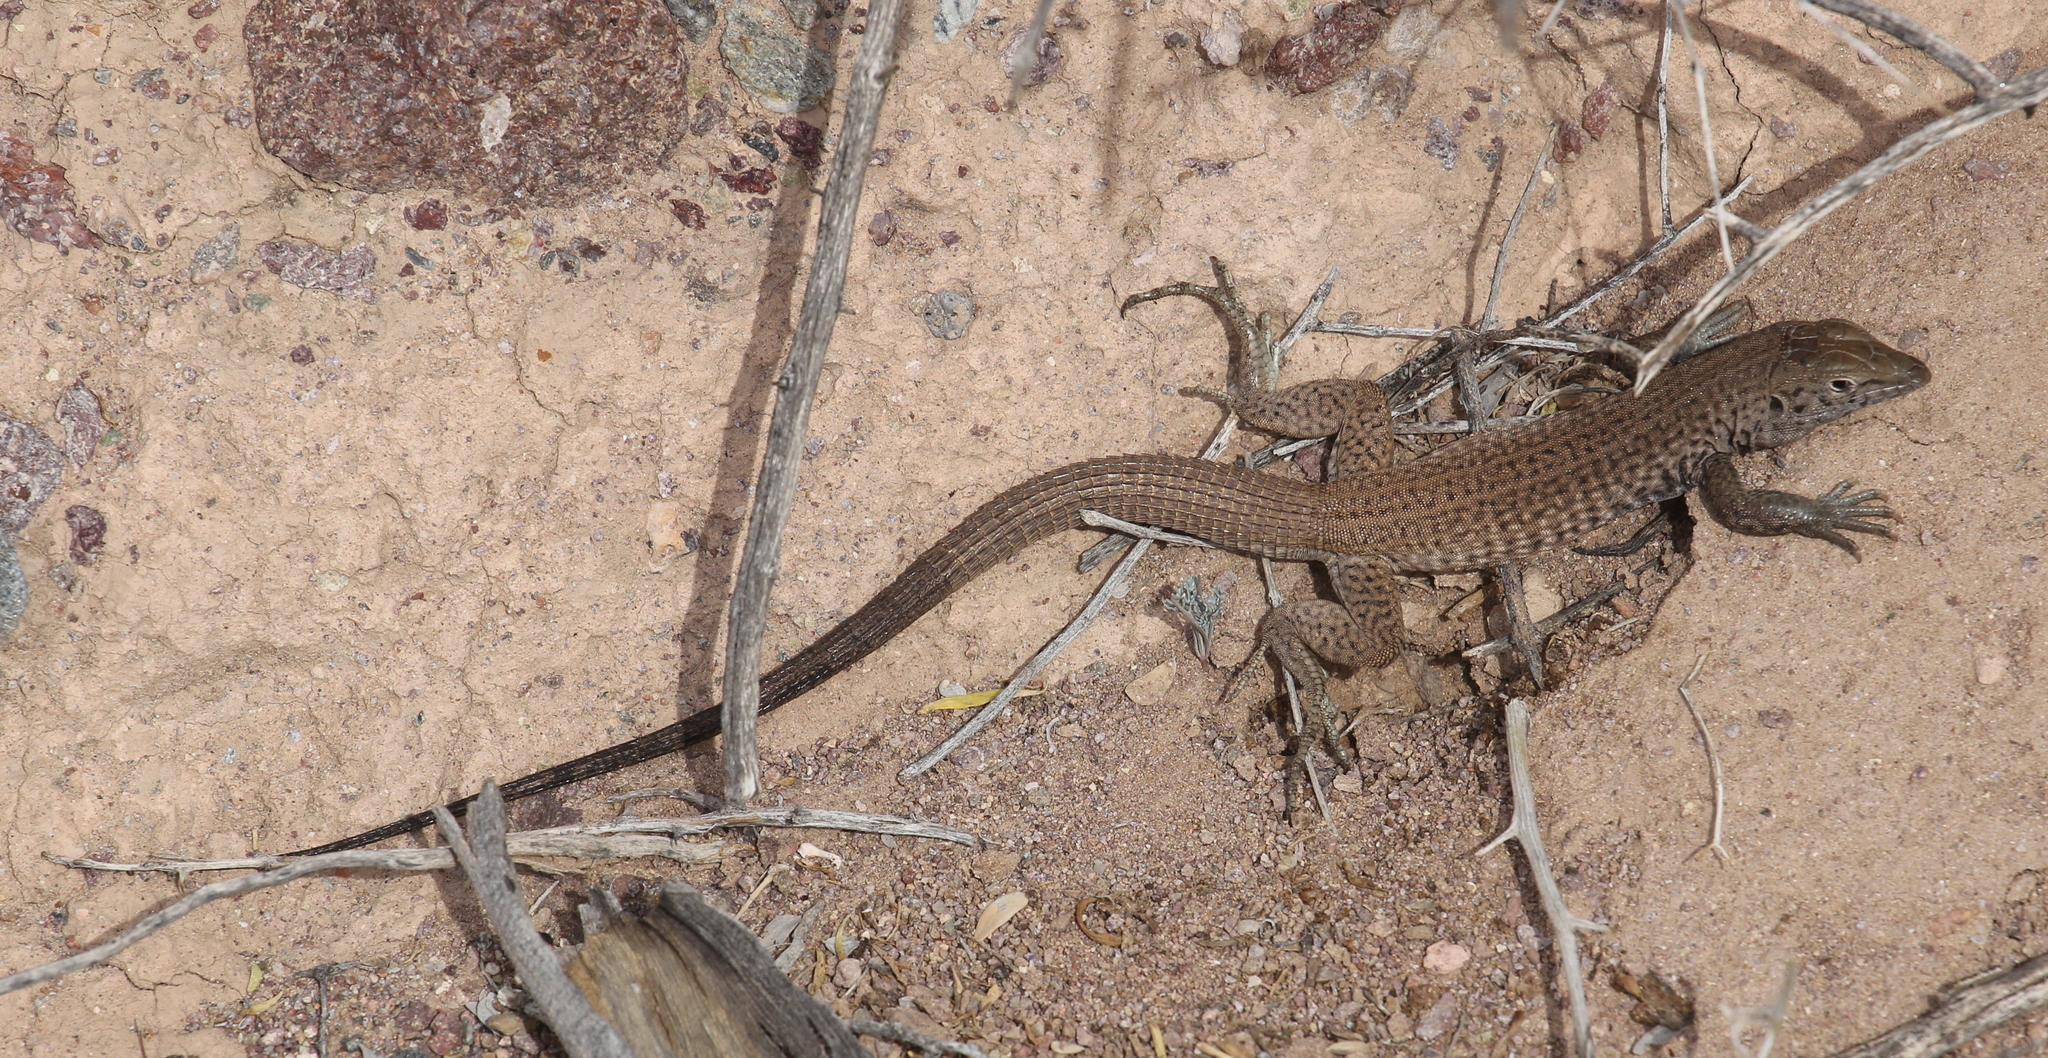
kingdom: Animalia
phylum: Chordata
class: Squamata
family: Teiidae
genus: Aspidoscelis
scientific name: Aspidoscelis tigris
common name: Tiger whiptail
